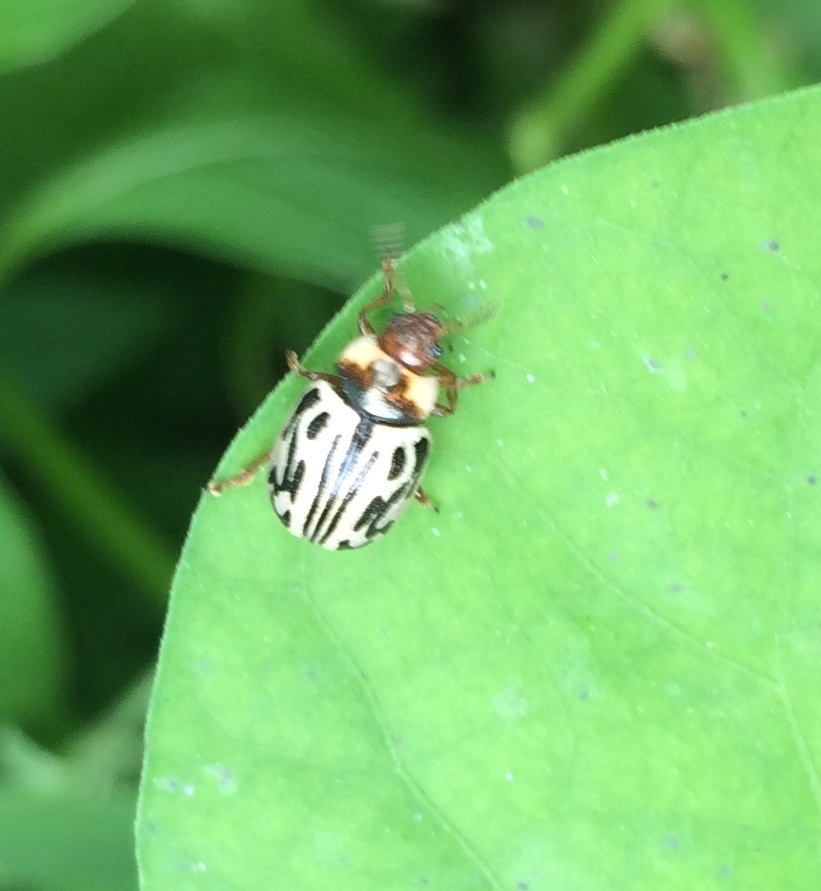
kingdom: Animalia
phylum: Arthropoda
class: Insecta
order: Coleoptera
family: Chrysomelidae
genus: Calligrapha
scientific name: Calligrapha
